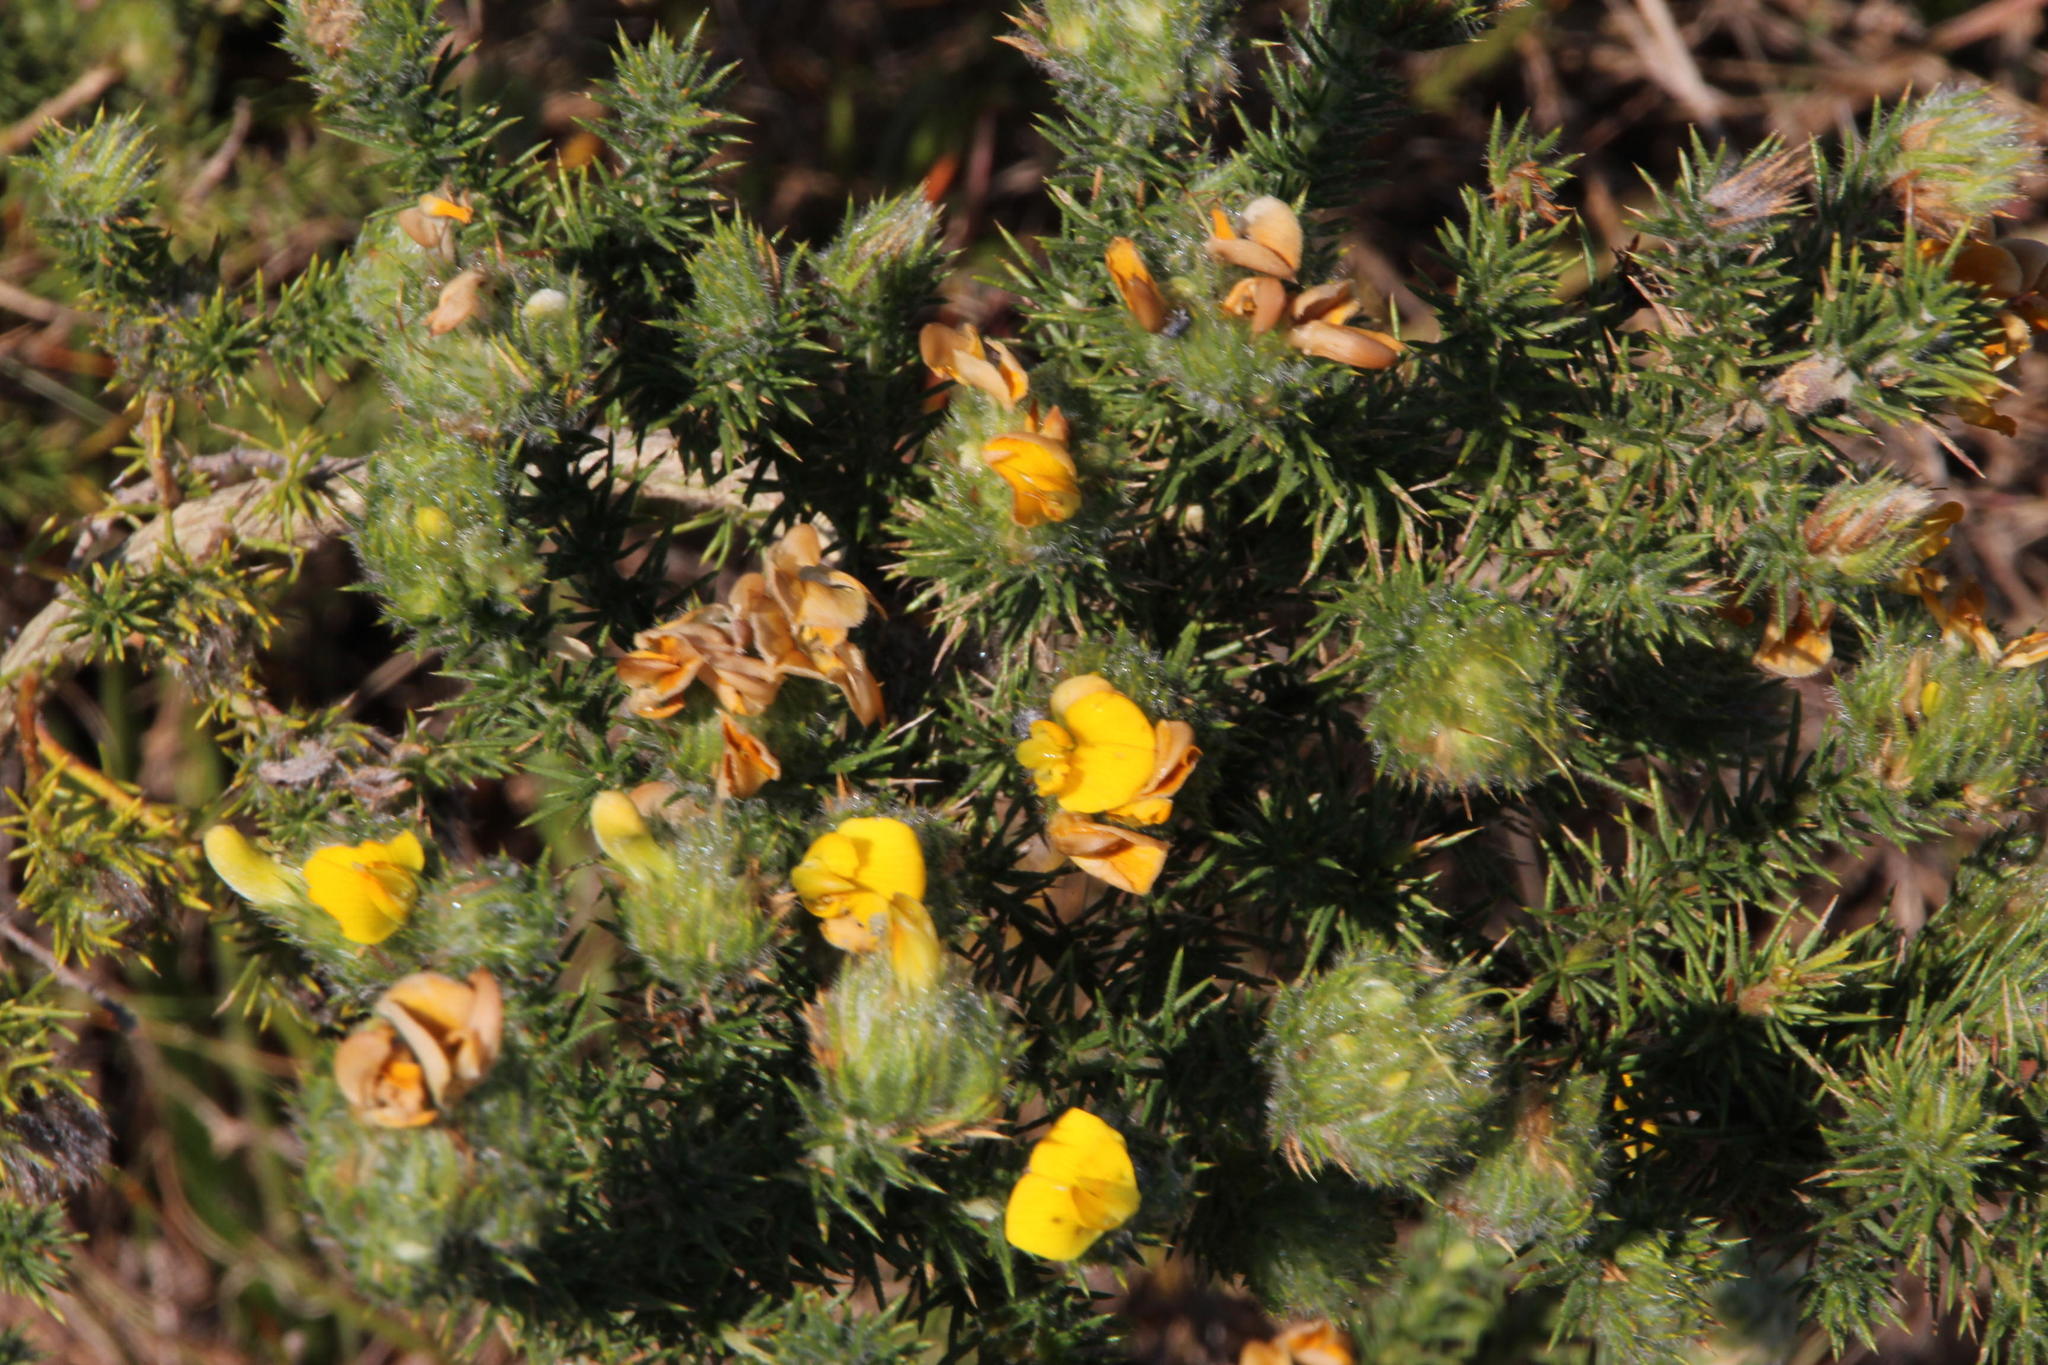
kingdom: Plantae
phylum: Tracheophyta
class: Magnoliopsida
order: Fabales
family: Fabaceae
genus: Aspalathus
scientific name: Aspalathus chenopoda
